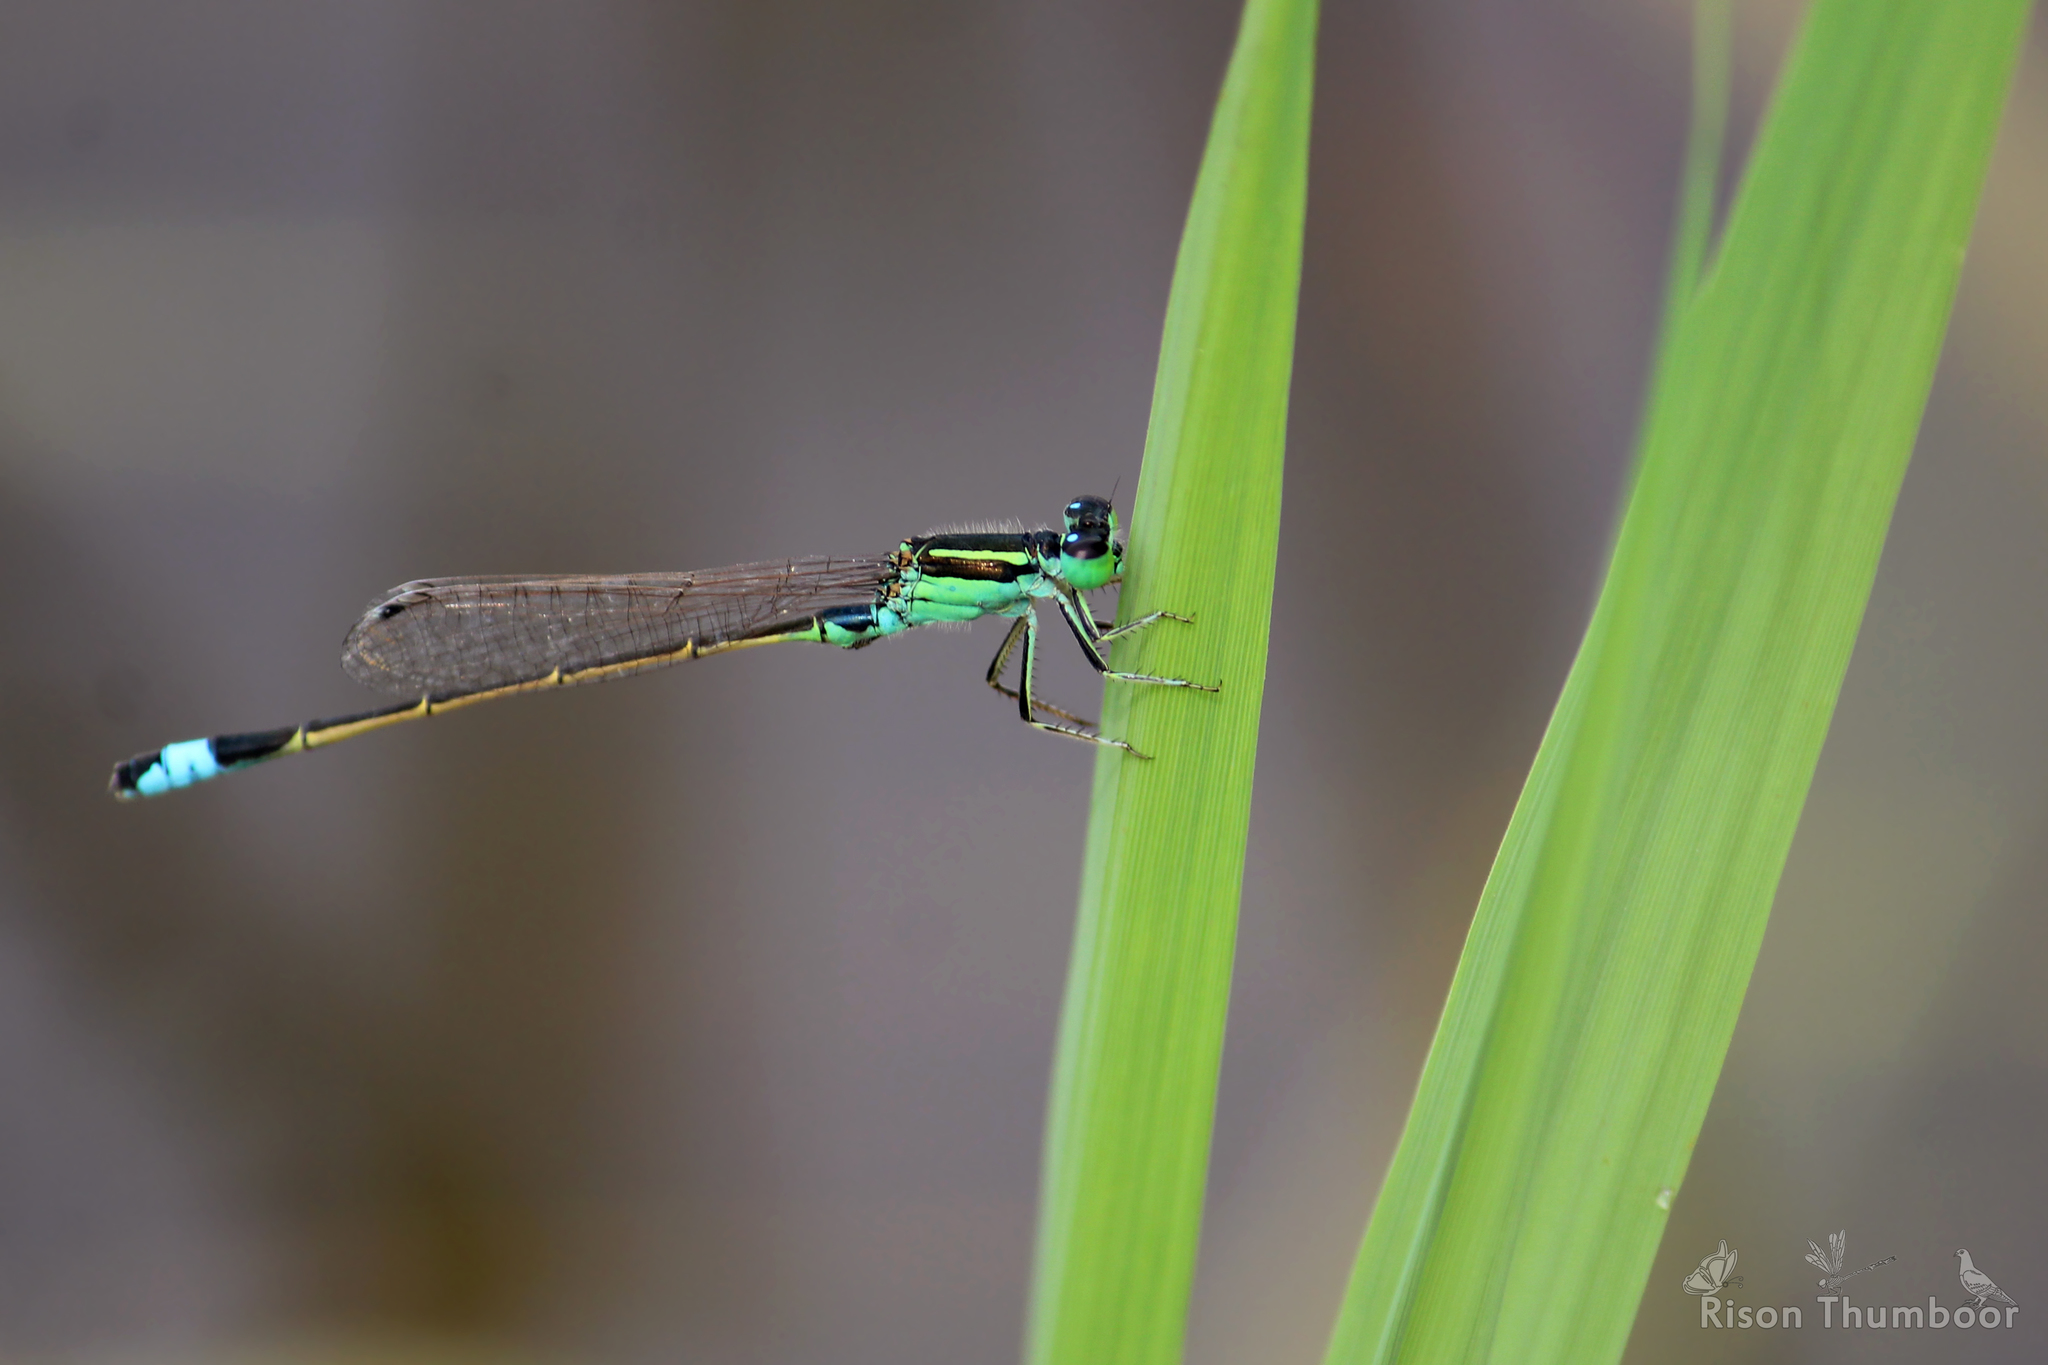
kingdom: Animalia
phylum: Arthropoda
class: Insecta
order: Odonata
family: Coenagrionidae
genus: Ischnura
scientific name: Ischnura senegalensis
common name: Tropical bluetail
